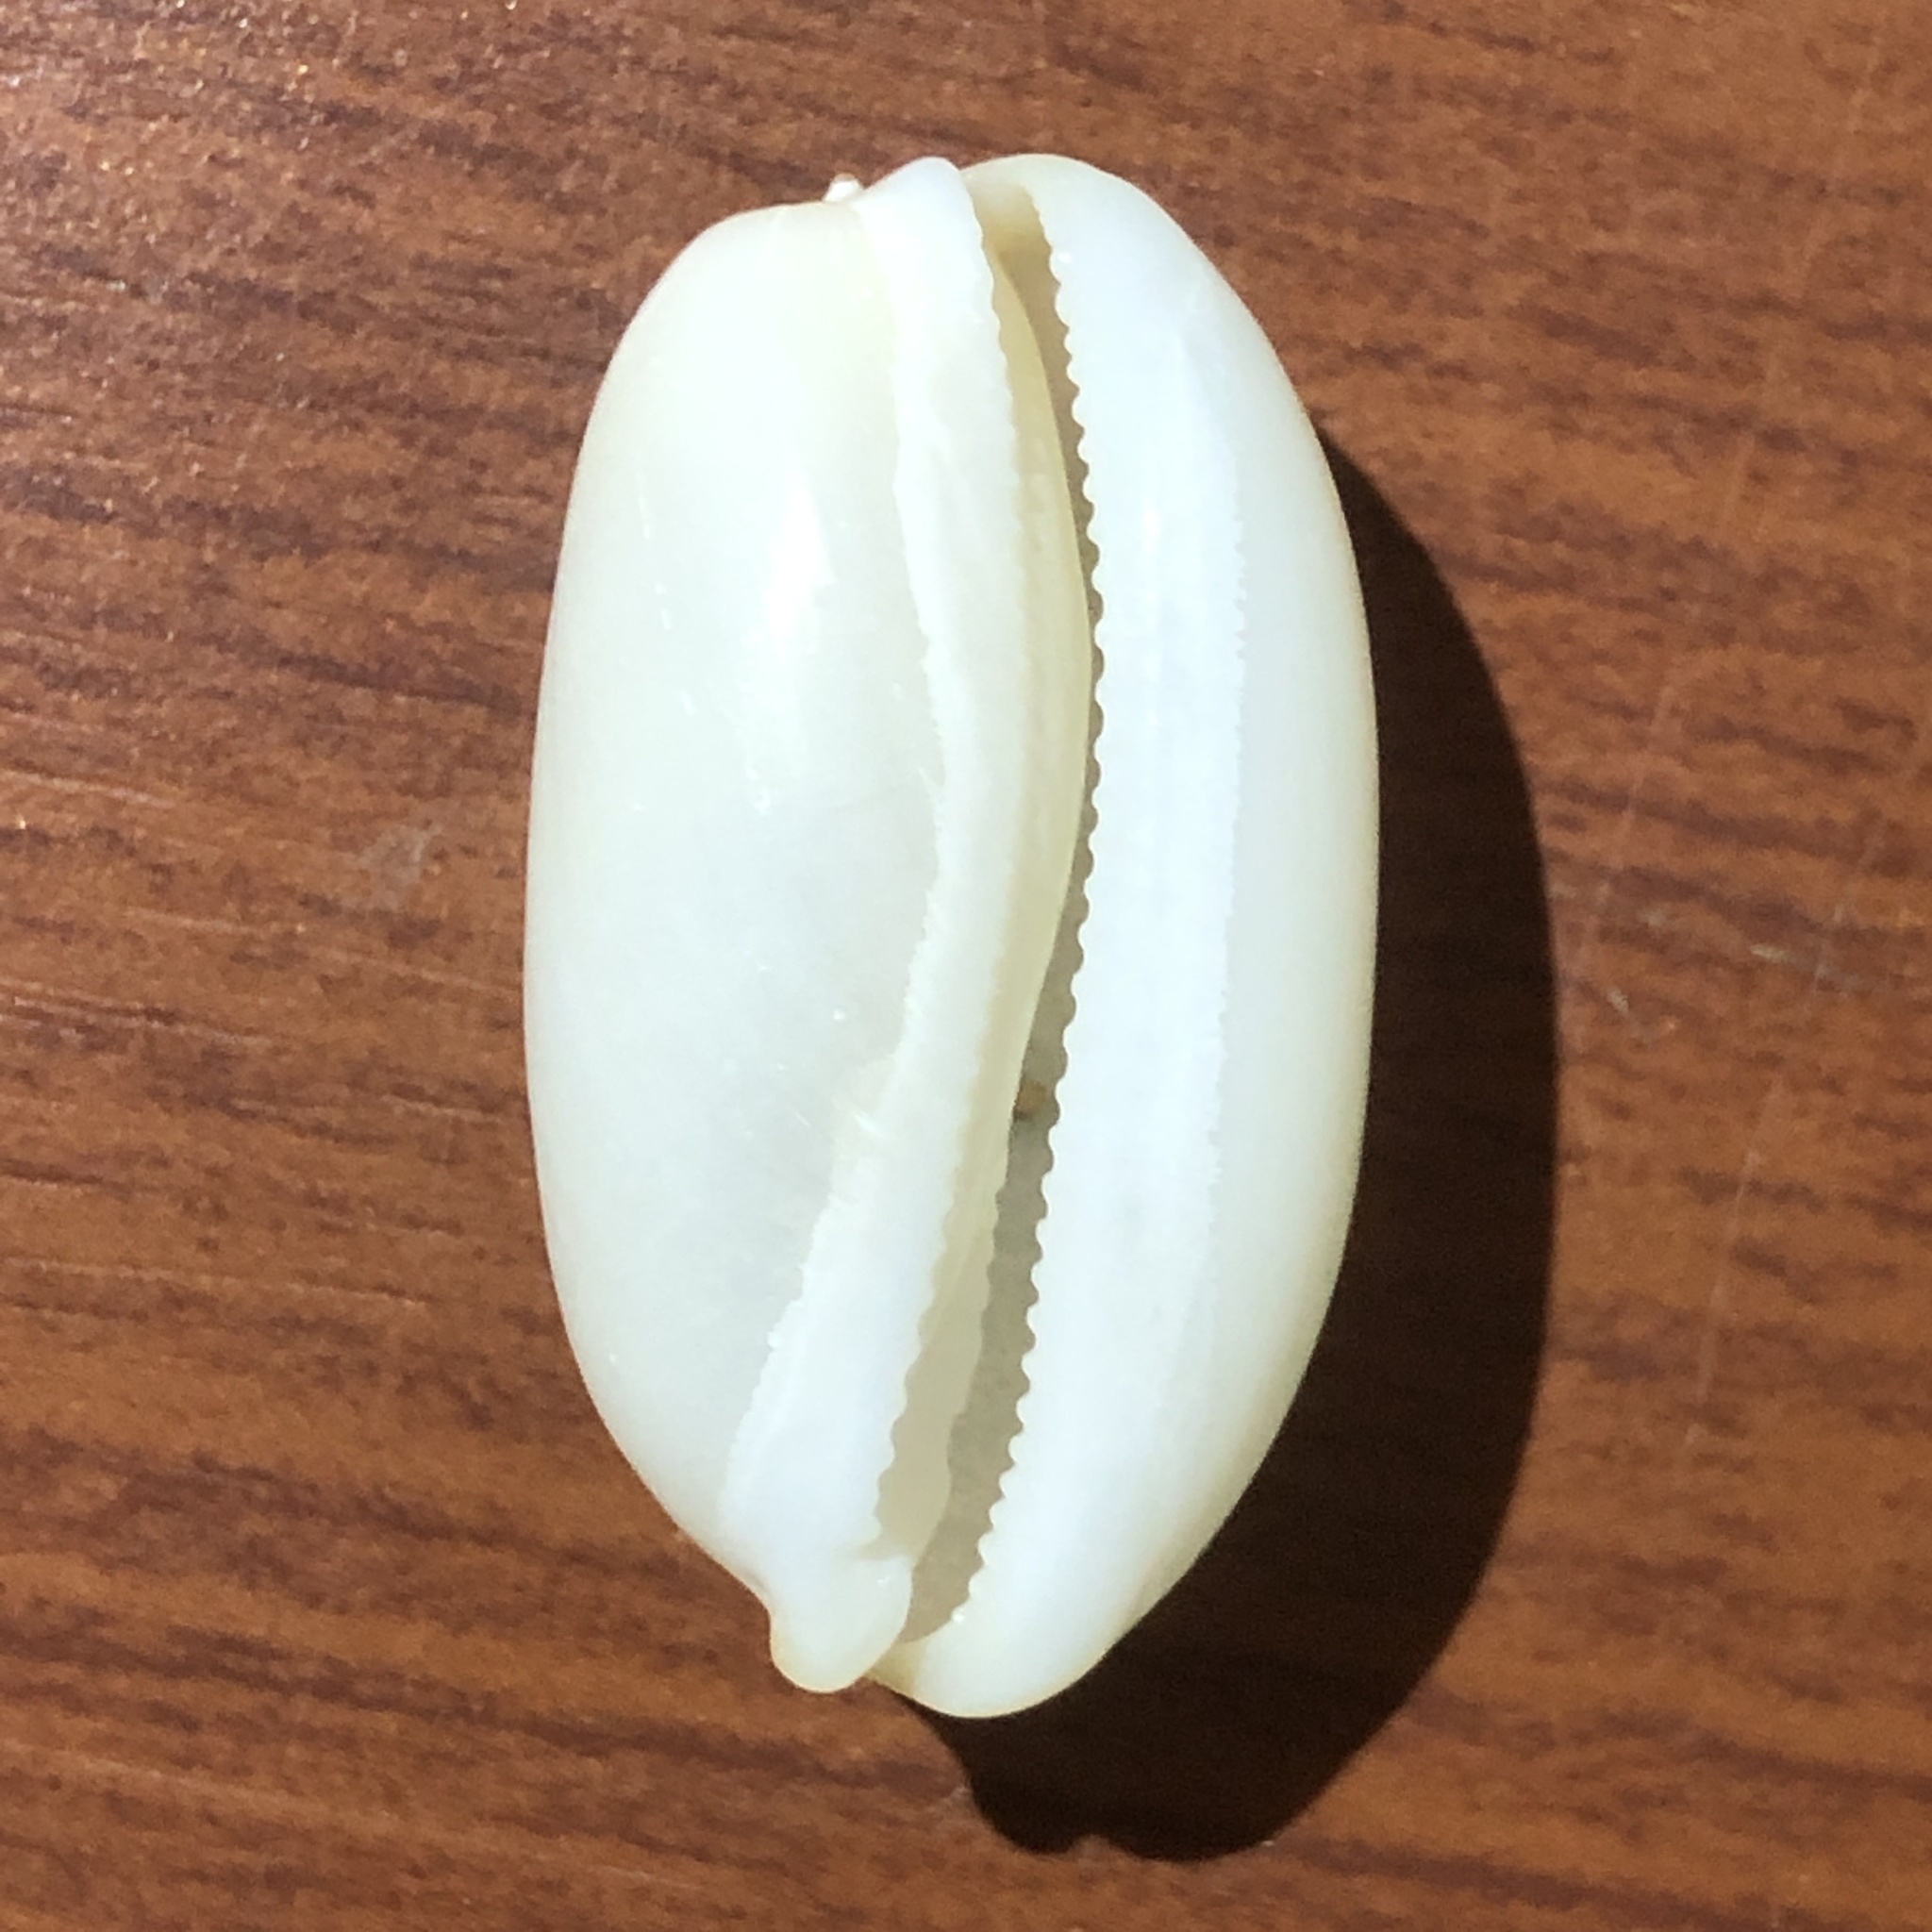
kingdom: Animalia
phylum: Mollusca
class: Gastropoda
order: Littorinimorpha
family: Cypraeidae
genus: Luria
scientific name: Luria isabella
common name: Isabell cowry
